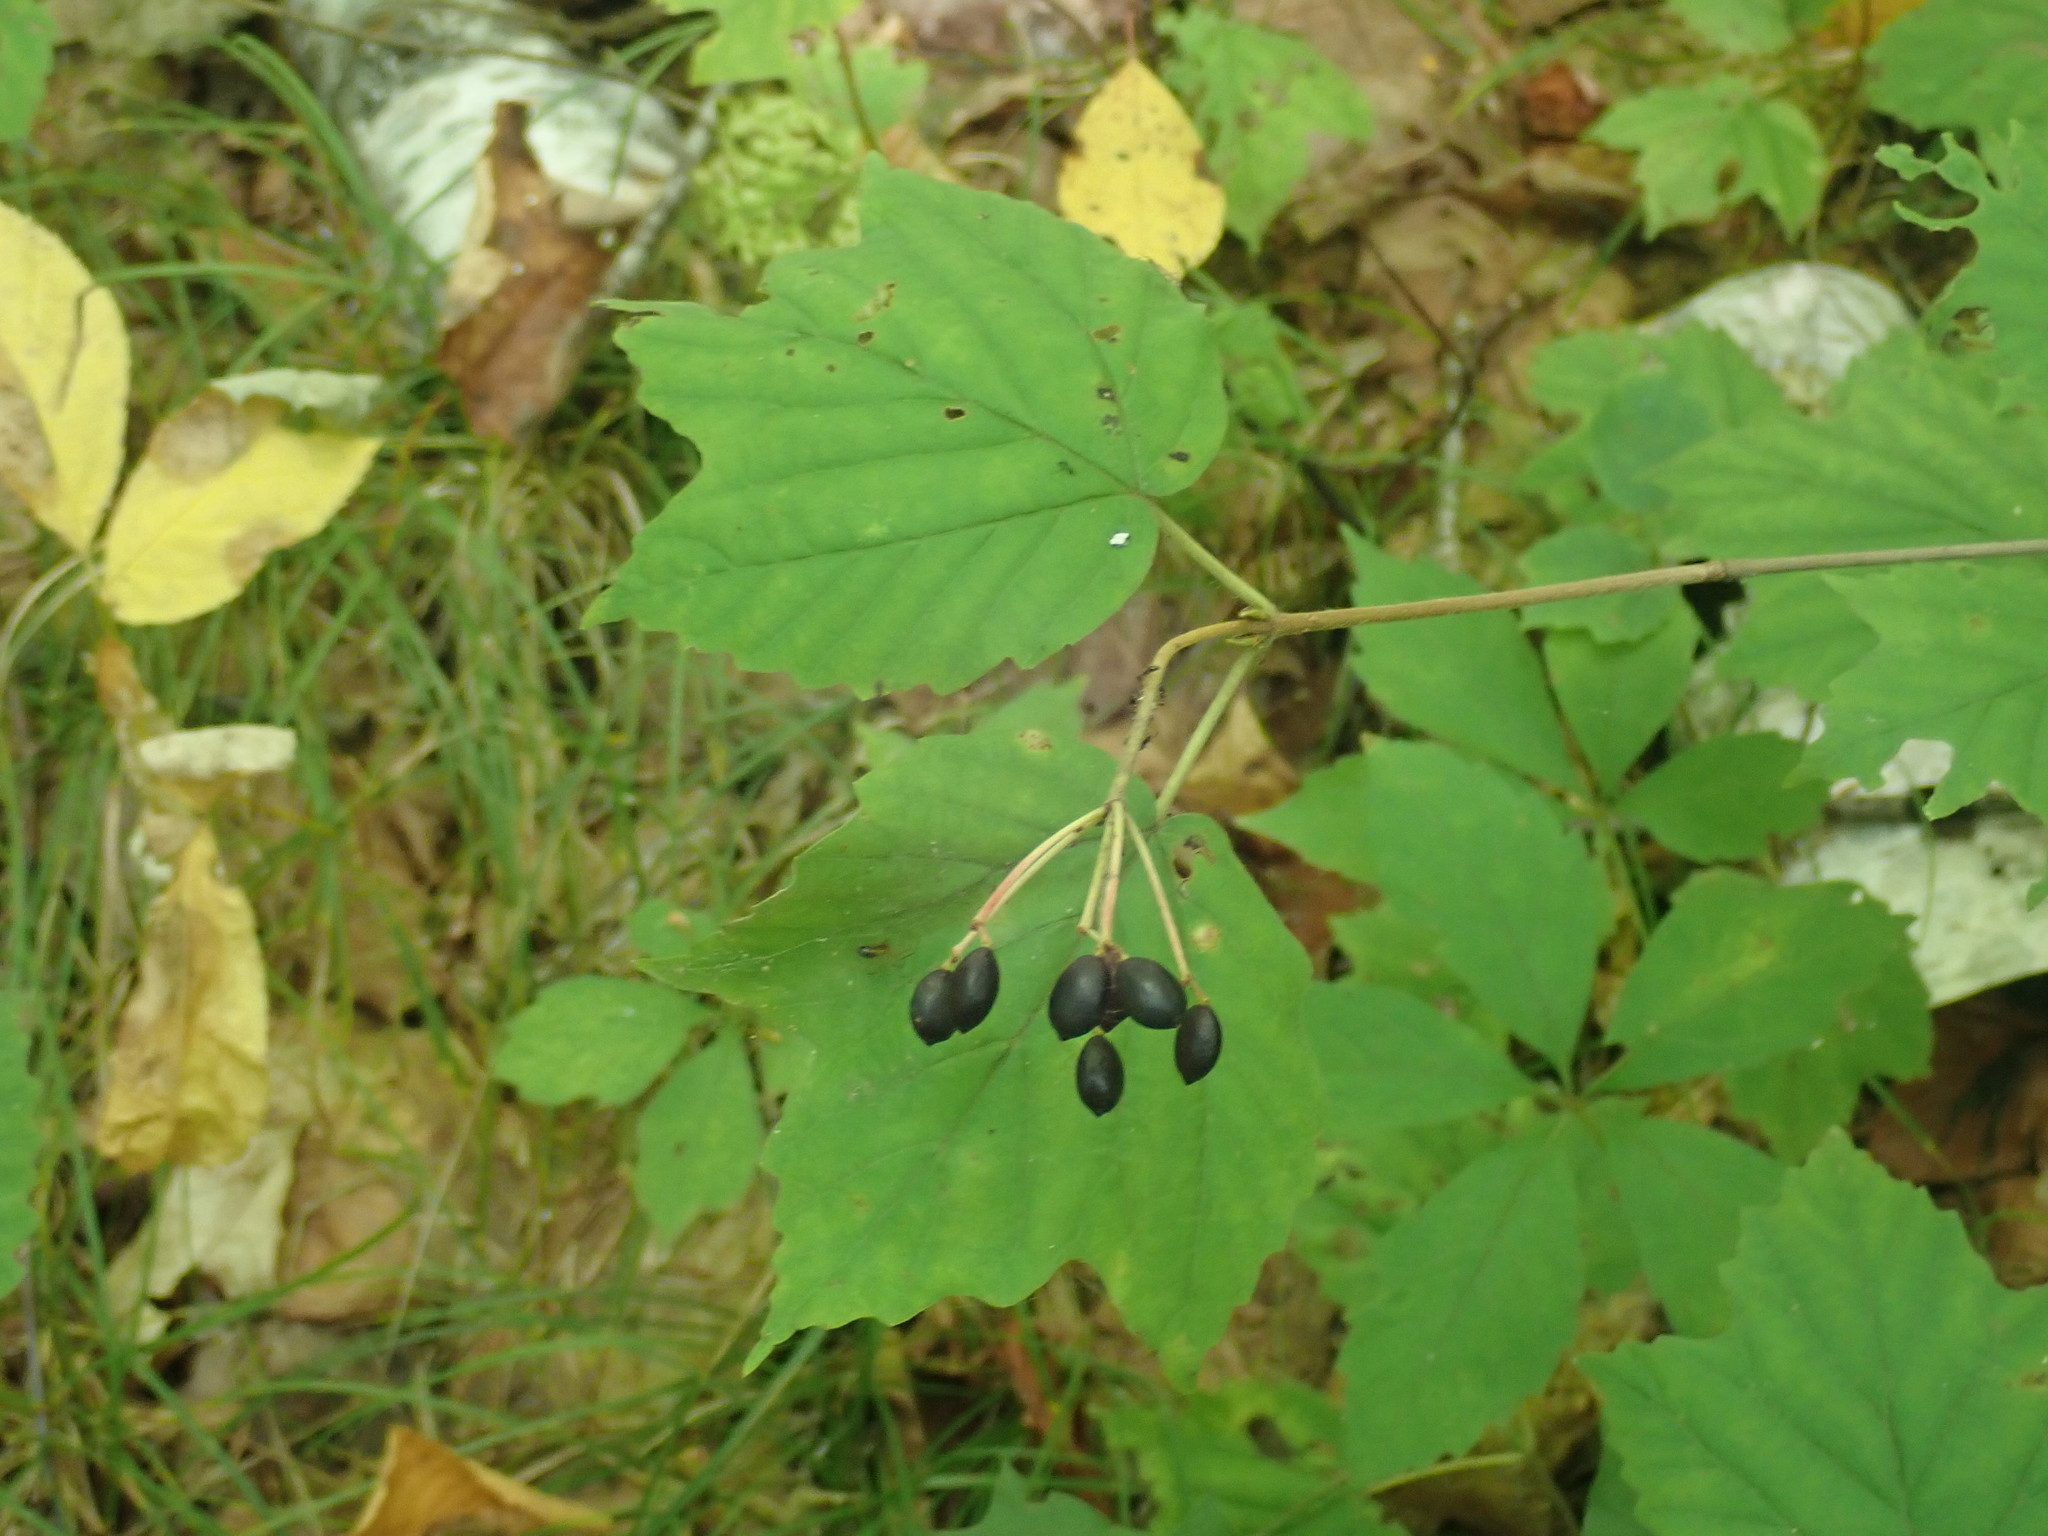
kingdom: Plantae
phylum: Tracheophyta
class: Magnoliopsida
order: Dipsacales
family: Viburnaceae
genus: Viburnum
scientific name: Viburnum acerifolium
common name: Dockmackie
